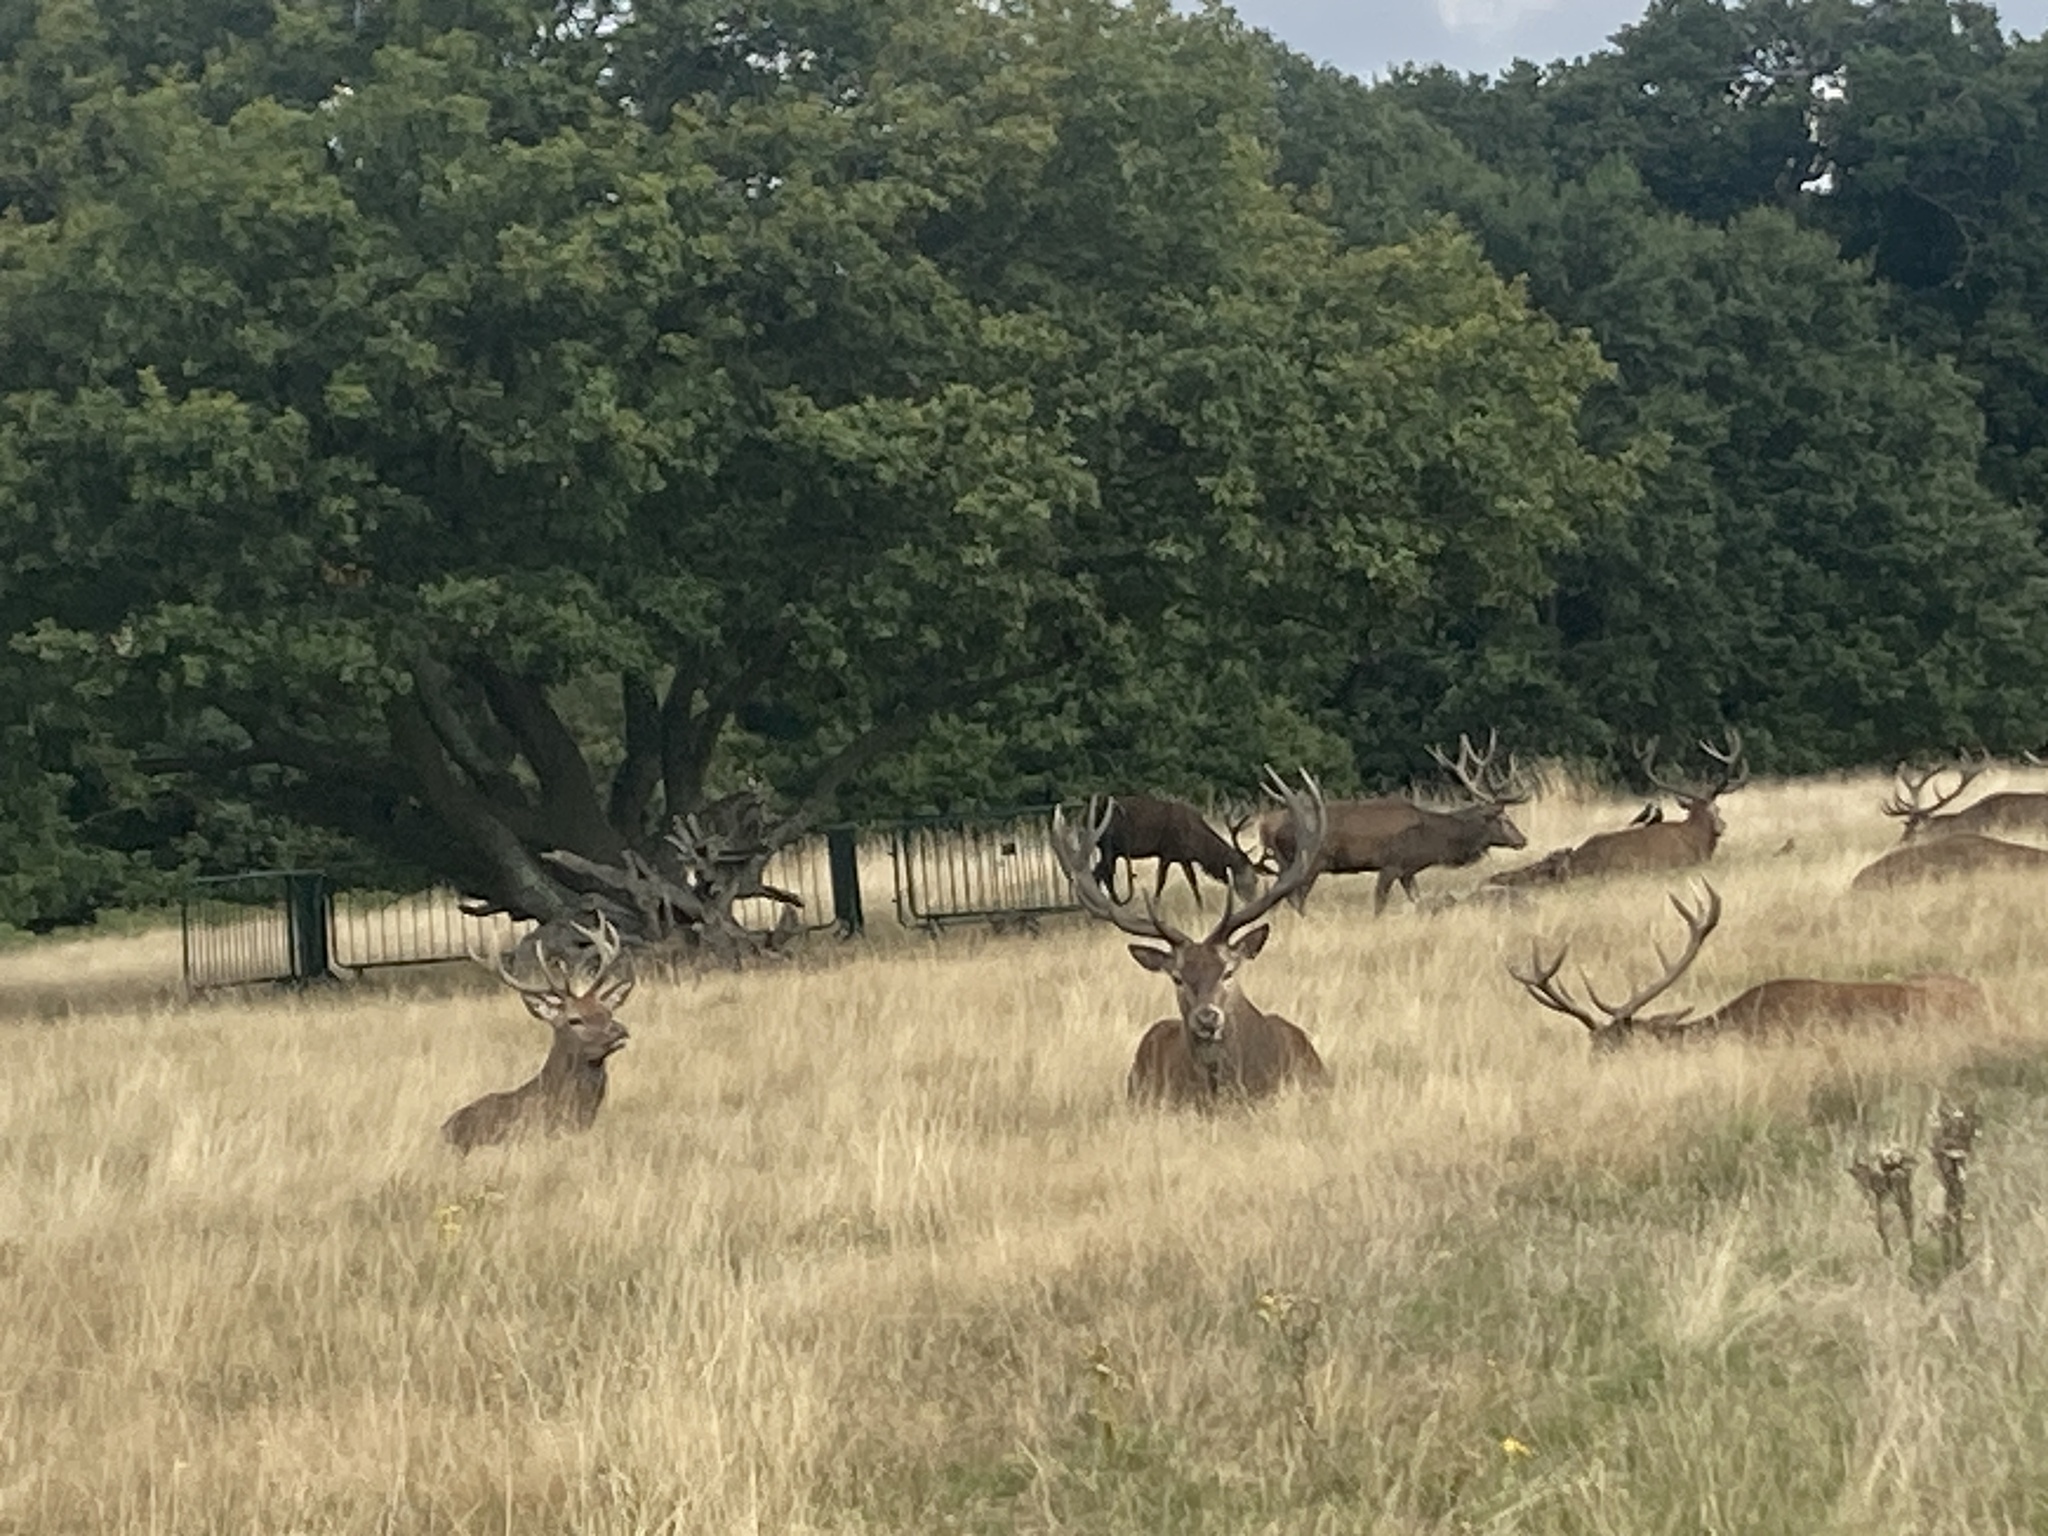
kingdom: Animalia
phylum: Chordata
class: Mammalia
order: Artiodactyla
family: Cervidae
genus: Cervus
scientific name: Cervus elaphus
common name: Red deer
